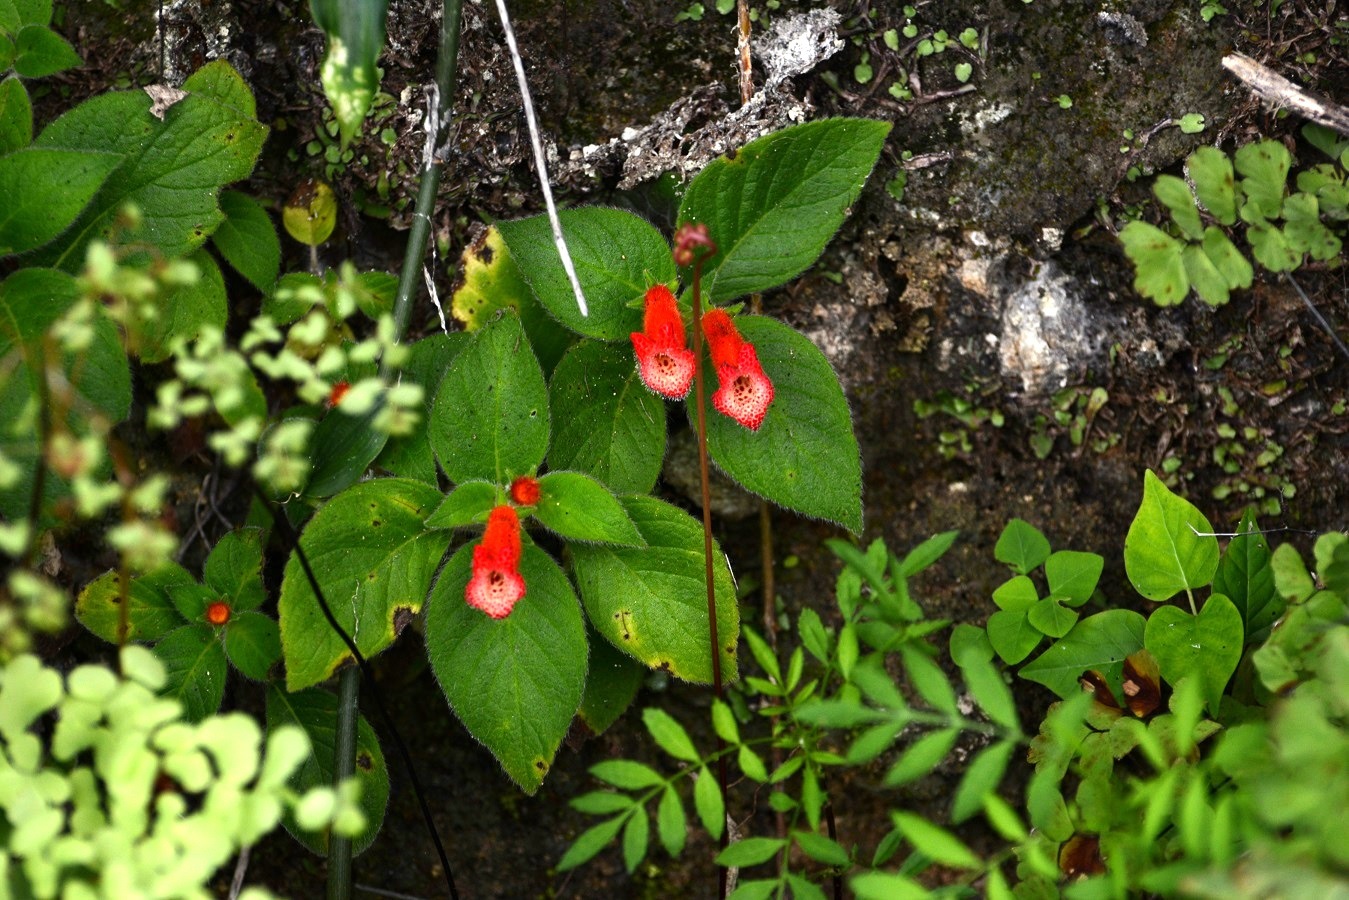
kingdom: Plantae
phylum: Tracheophyta
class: Magnoliopsida
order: Lamiales
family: Gesneriaceae
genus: Kohleria
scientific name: Kohleria rugata
